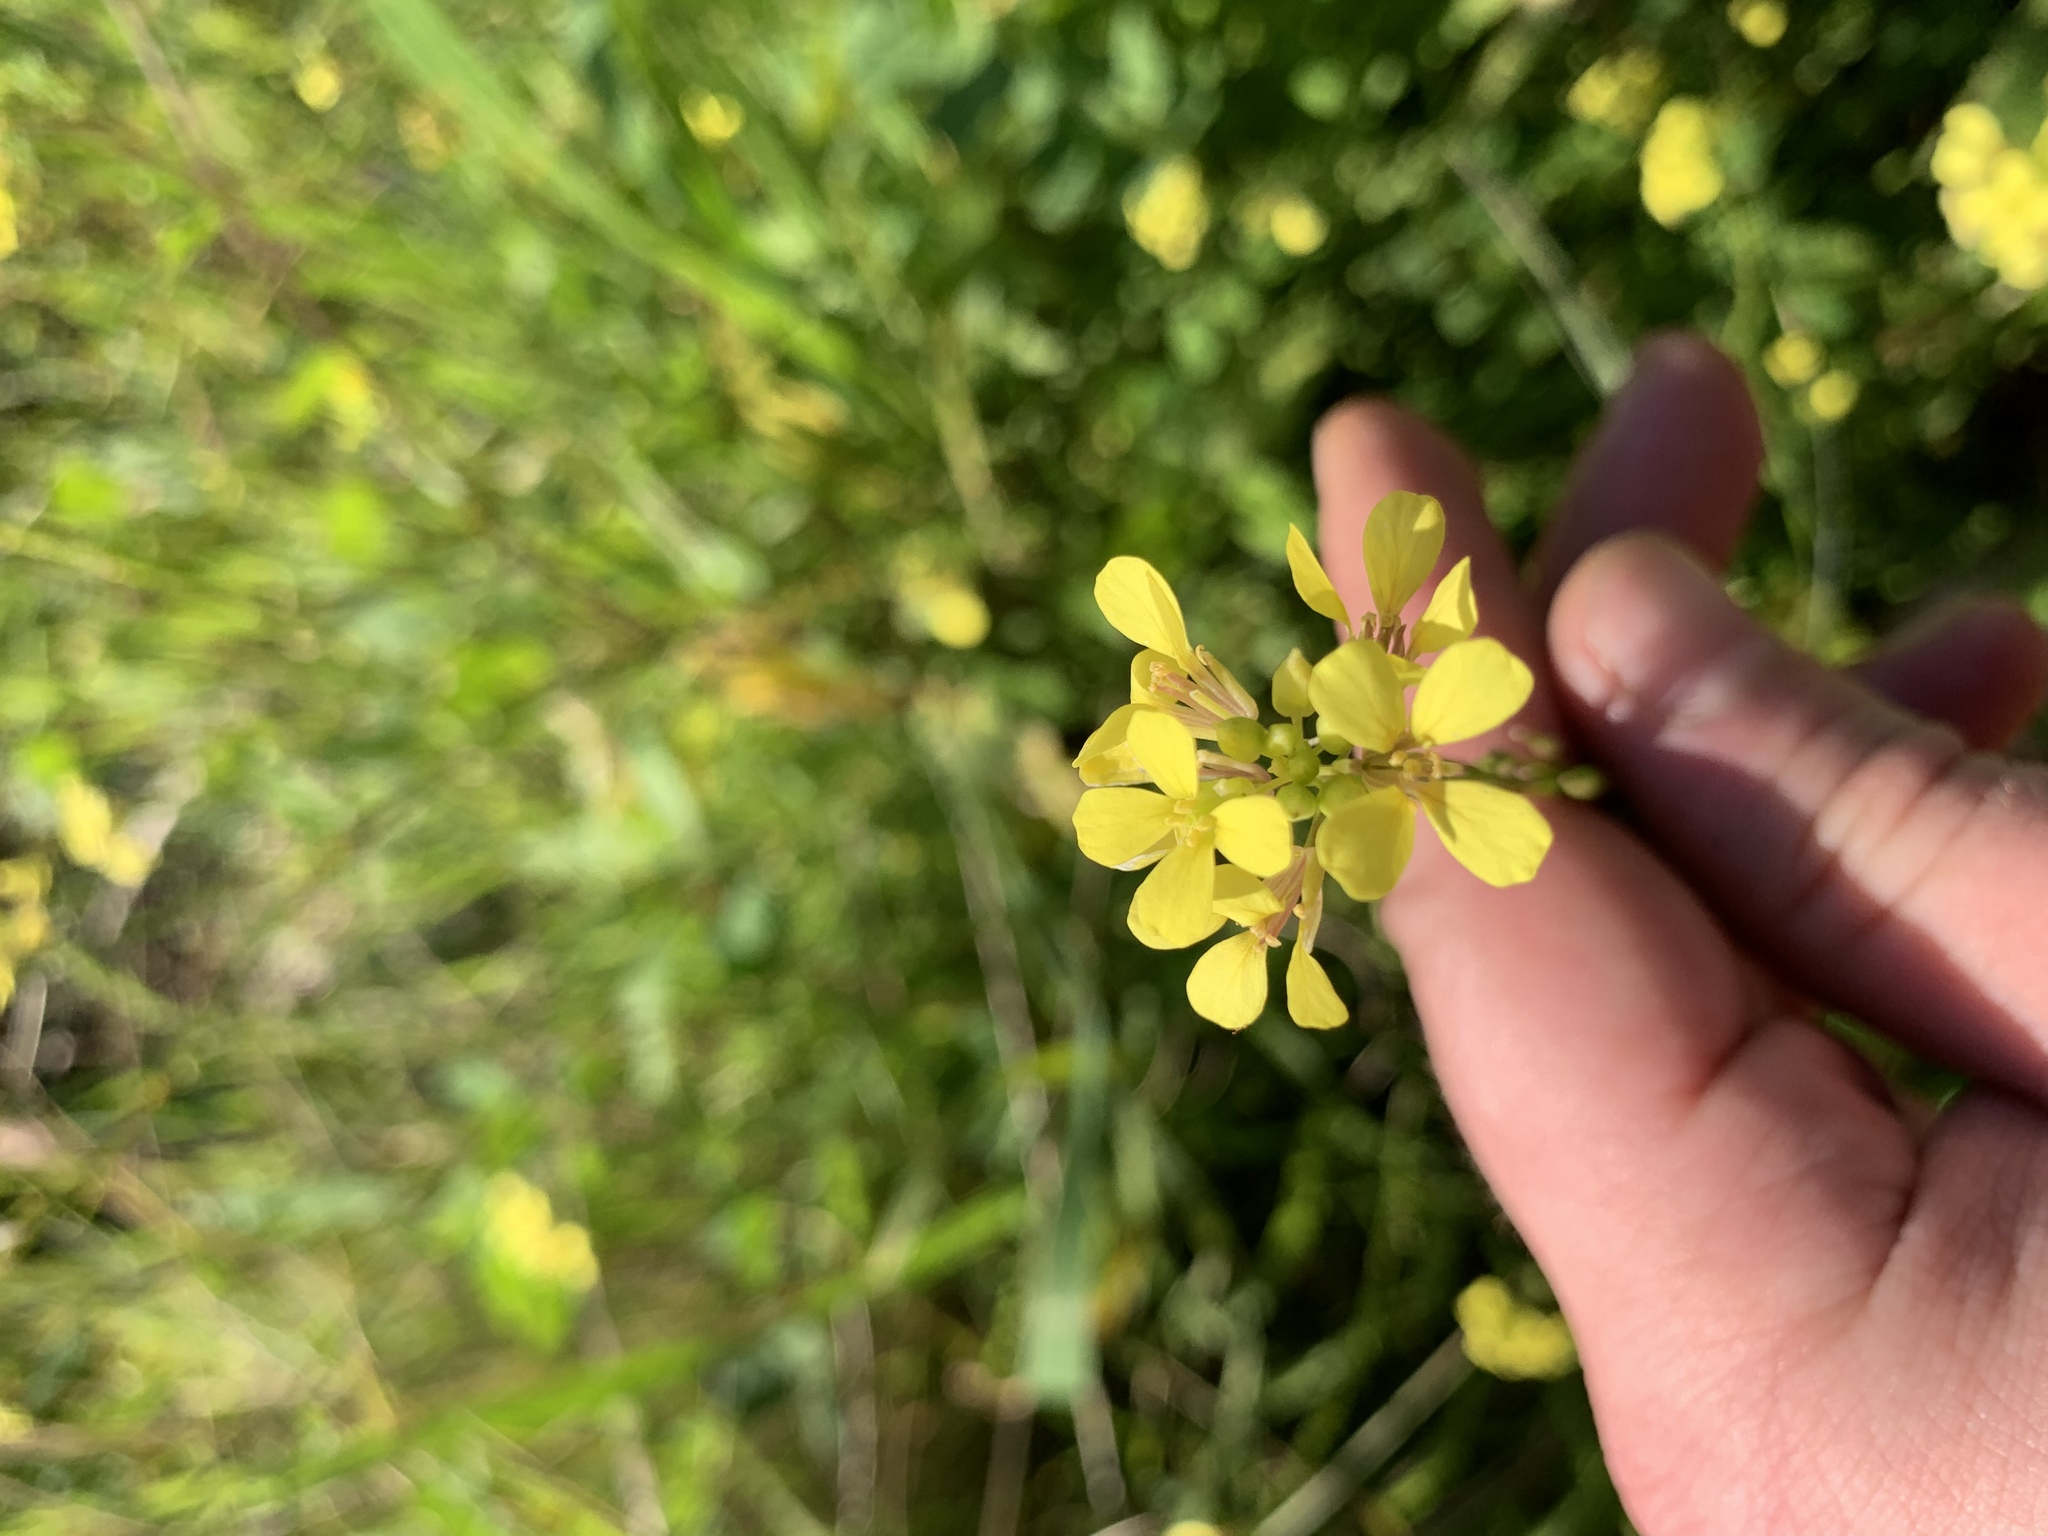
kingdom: Plantae
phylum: Tracheophyta
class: Magnoliopsida
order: Brassicales
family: Brassicaceae
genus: Rapistrum
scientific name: Rapistrum rugosum
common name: Annual bastardcabbage
